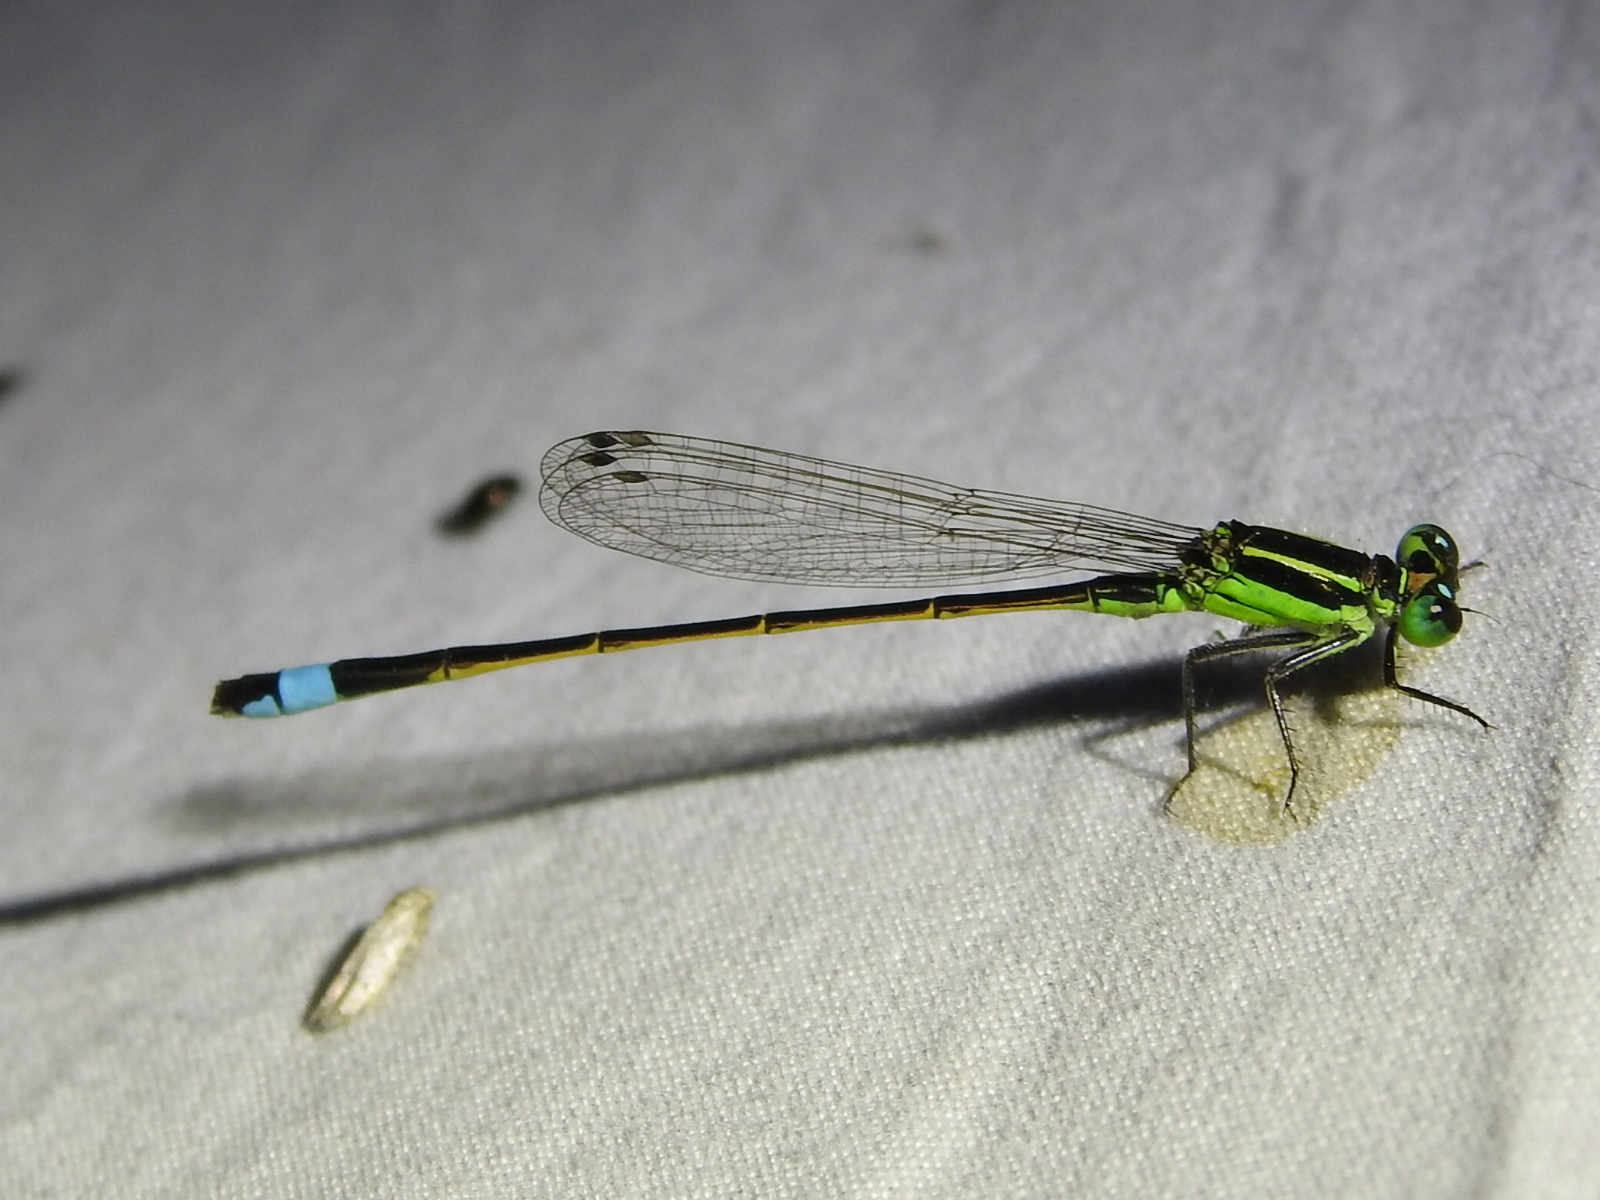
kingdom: Animalia
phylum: Arthropoda
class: Insecta
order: Odonata
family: Coenagrionidae
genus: Ischnura
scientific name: Ischnura ramburii
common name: Rambur's forktail
